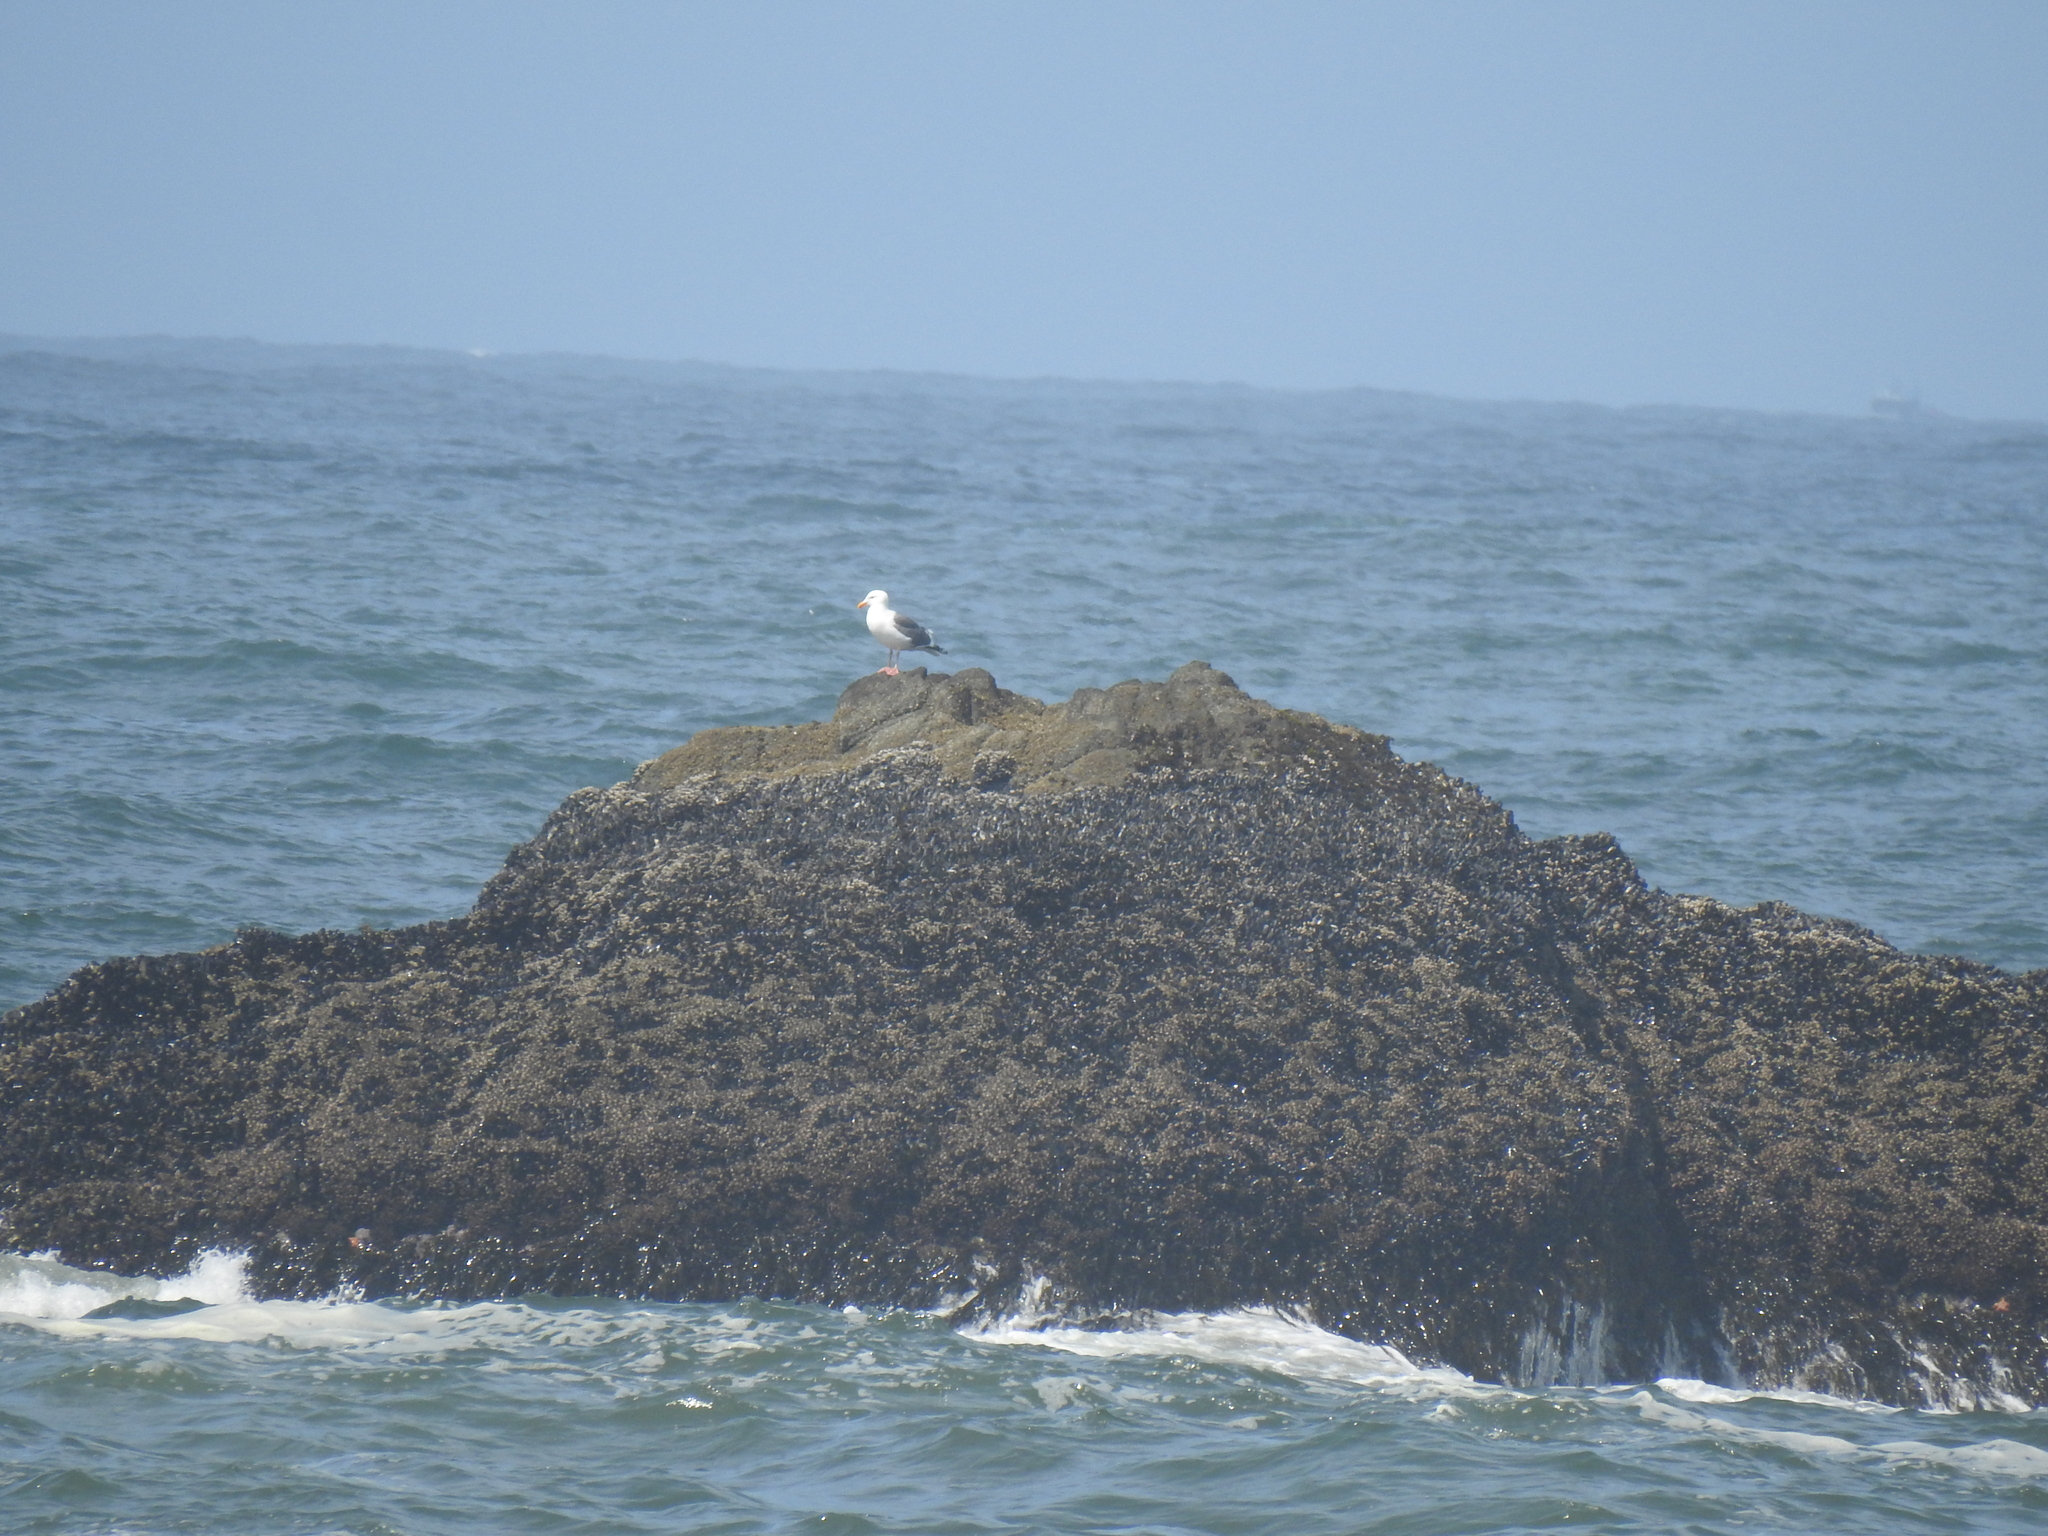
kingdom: Animalia
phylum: Chordata
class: Aves
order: Charadriiformes
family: Laridae
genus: Larus
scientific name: Larus occidentalis
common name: Western gull
